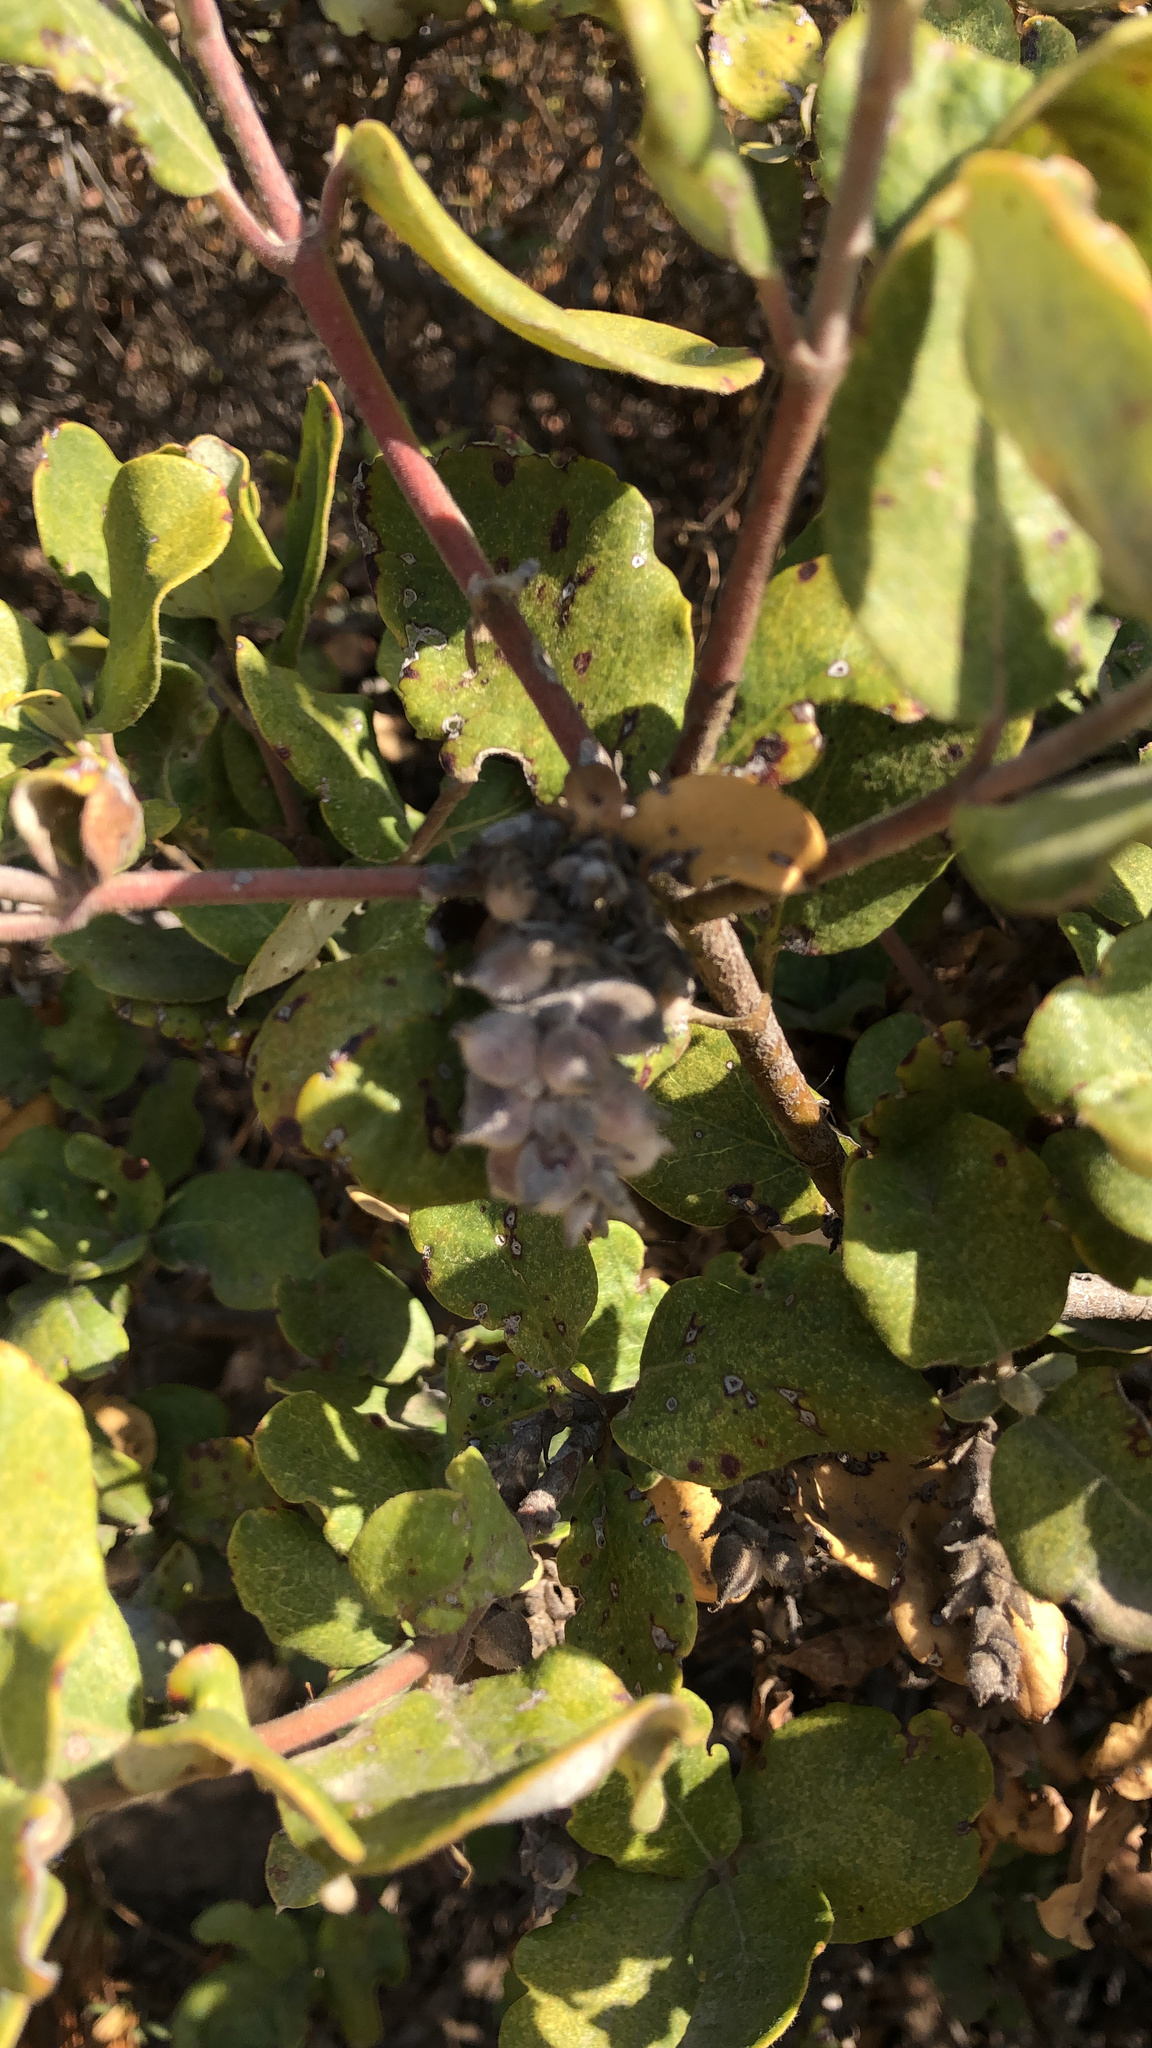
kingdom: Plantae
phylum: Tracheophyta
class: Magnoliopsida
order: Garryales
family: Garryaceae
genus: Garrya
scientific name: Garrya elliptica
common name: Silk-tassel
